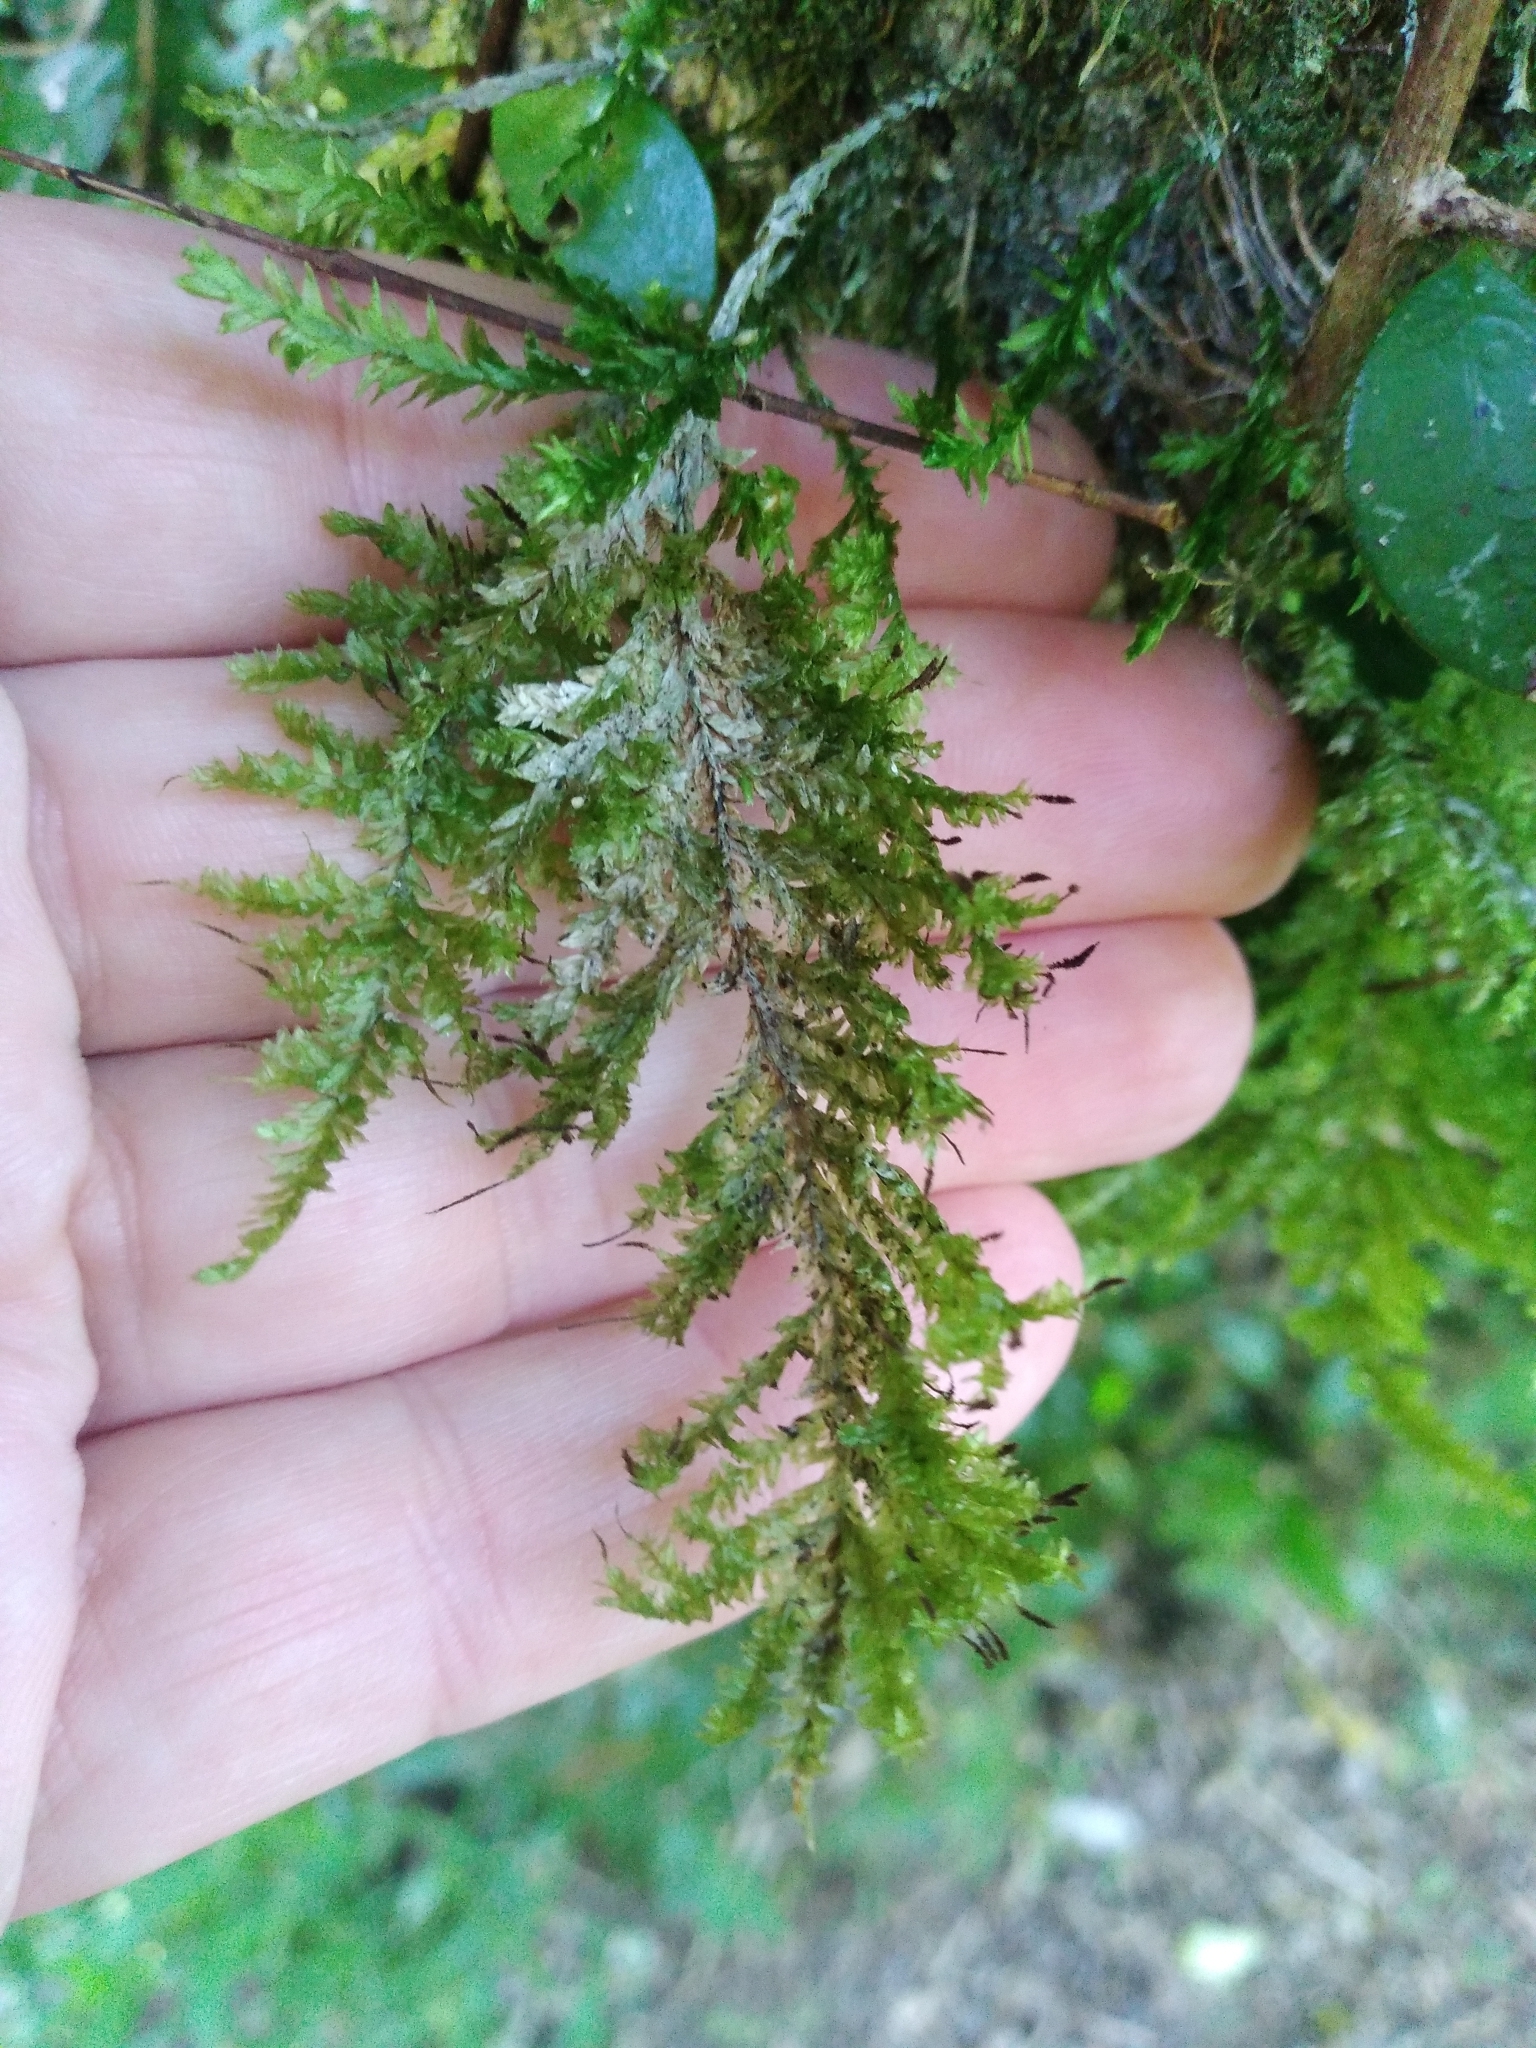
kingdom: Plantae
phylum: Bryophyta
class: Bryopsida
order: Hypnales
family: Trachylomataceae
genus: Trachyloma
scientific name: Trachyloma diversinerve
